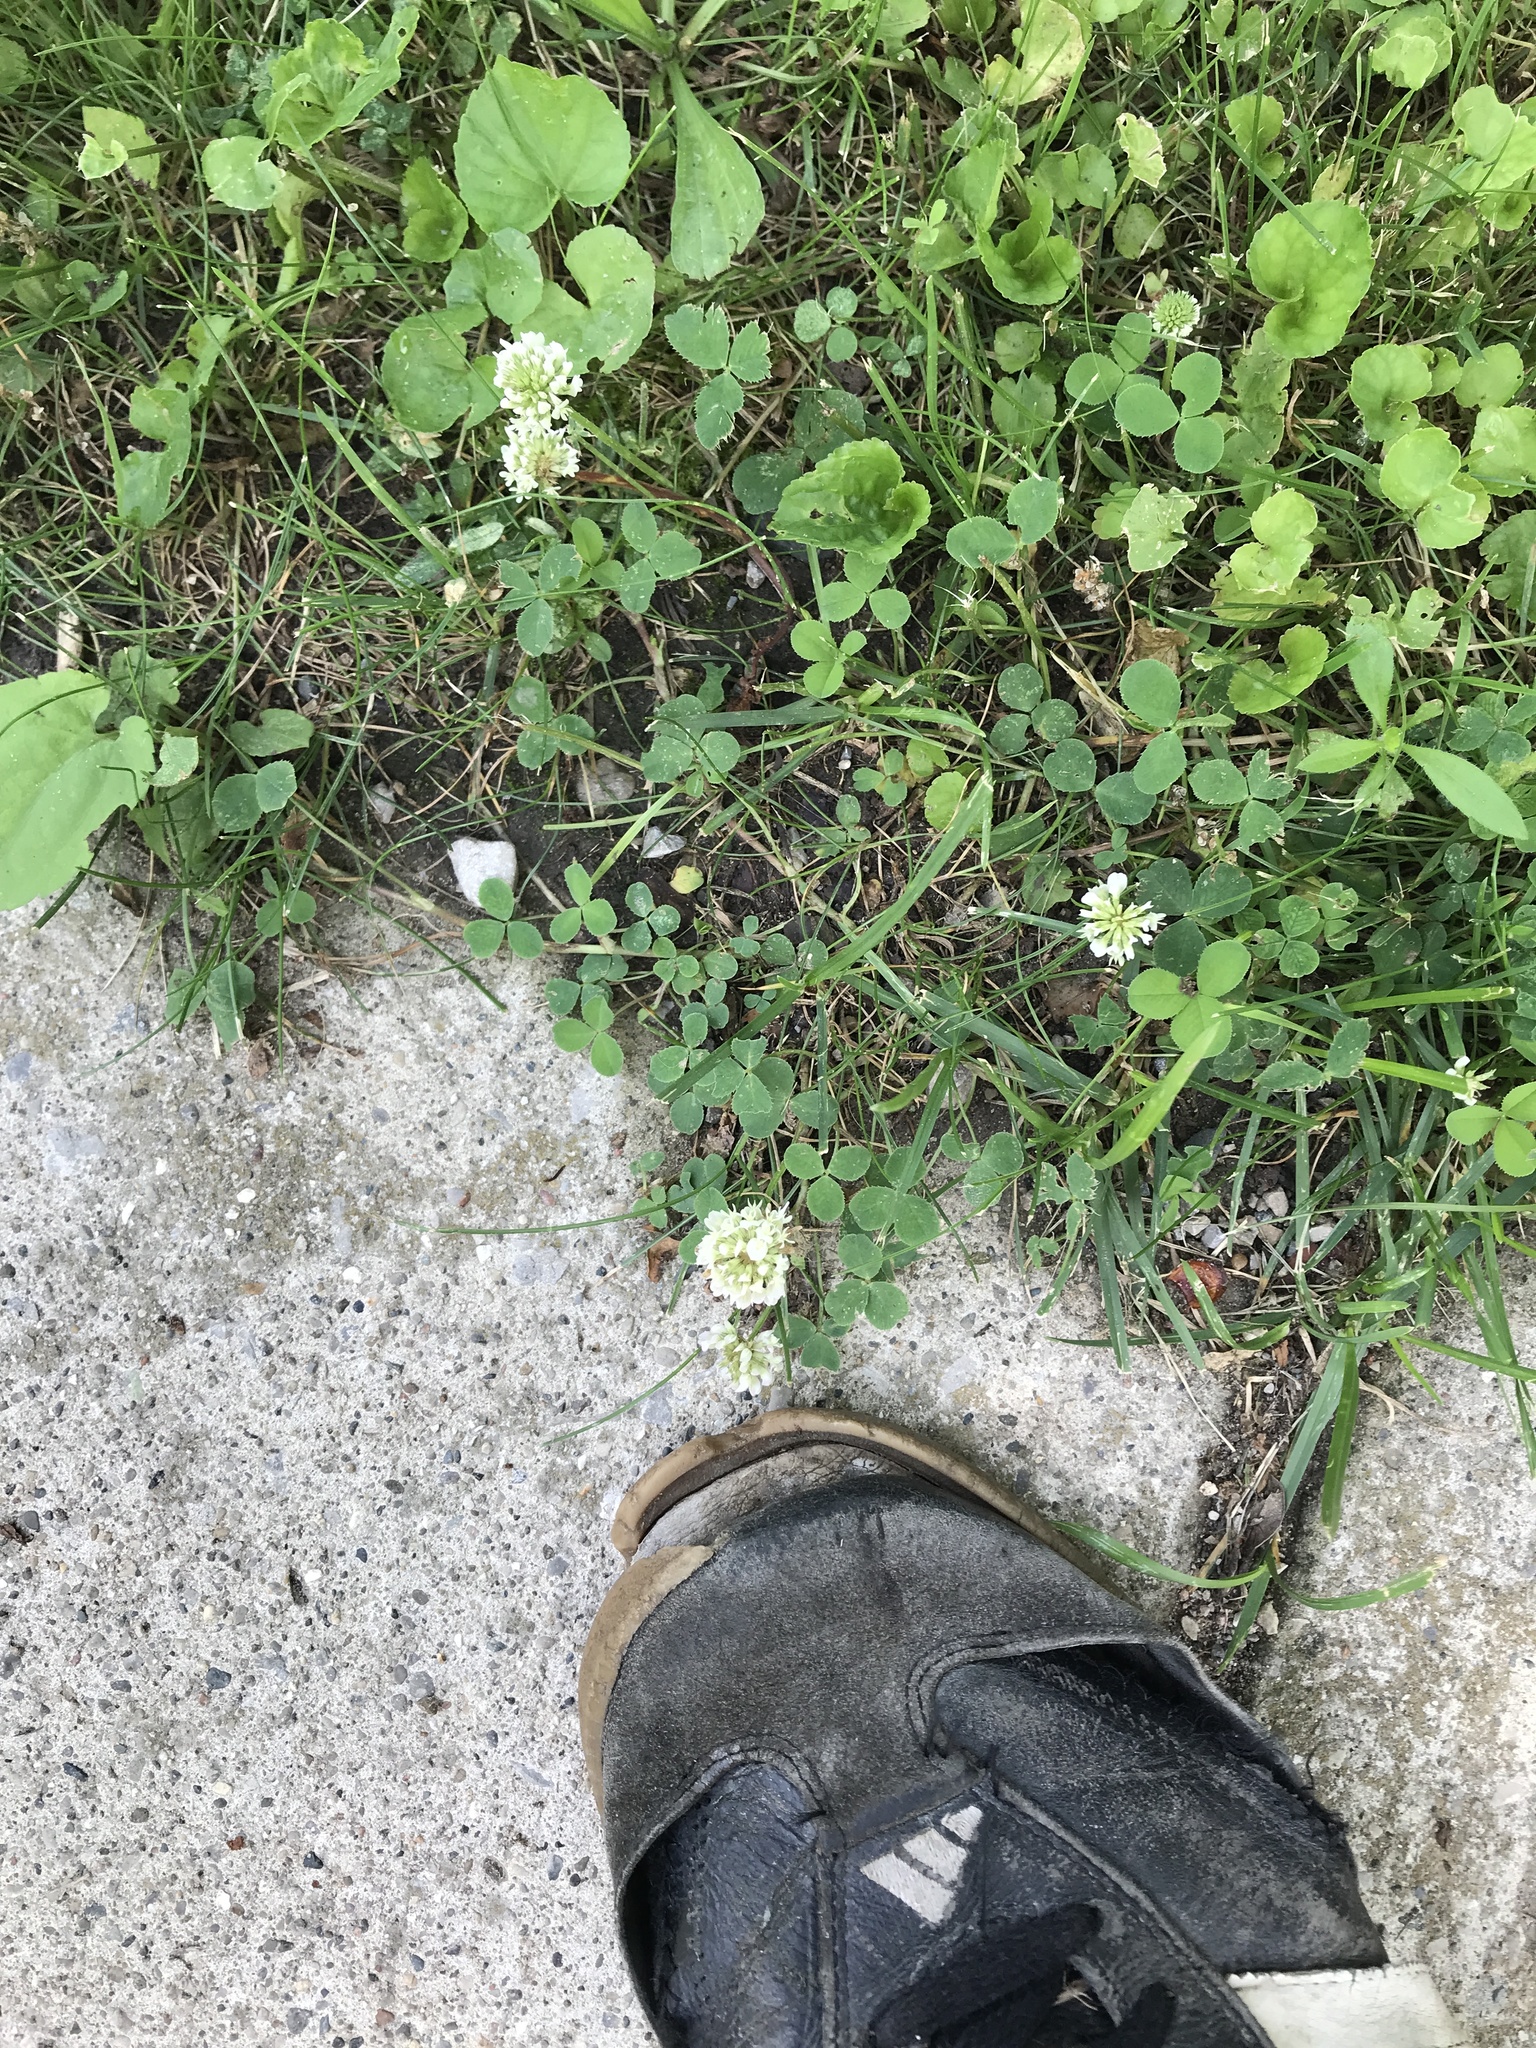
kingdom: Plantae
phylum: Tracheophyta
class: Magnoliopsida
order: Fabales
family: Fabaceae
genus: Trifolium
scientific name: Trifolium repens
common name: White clover
